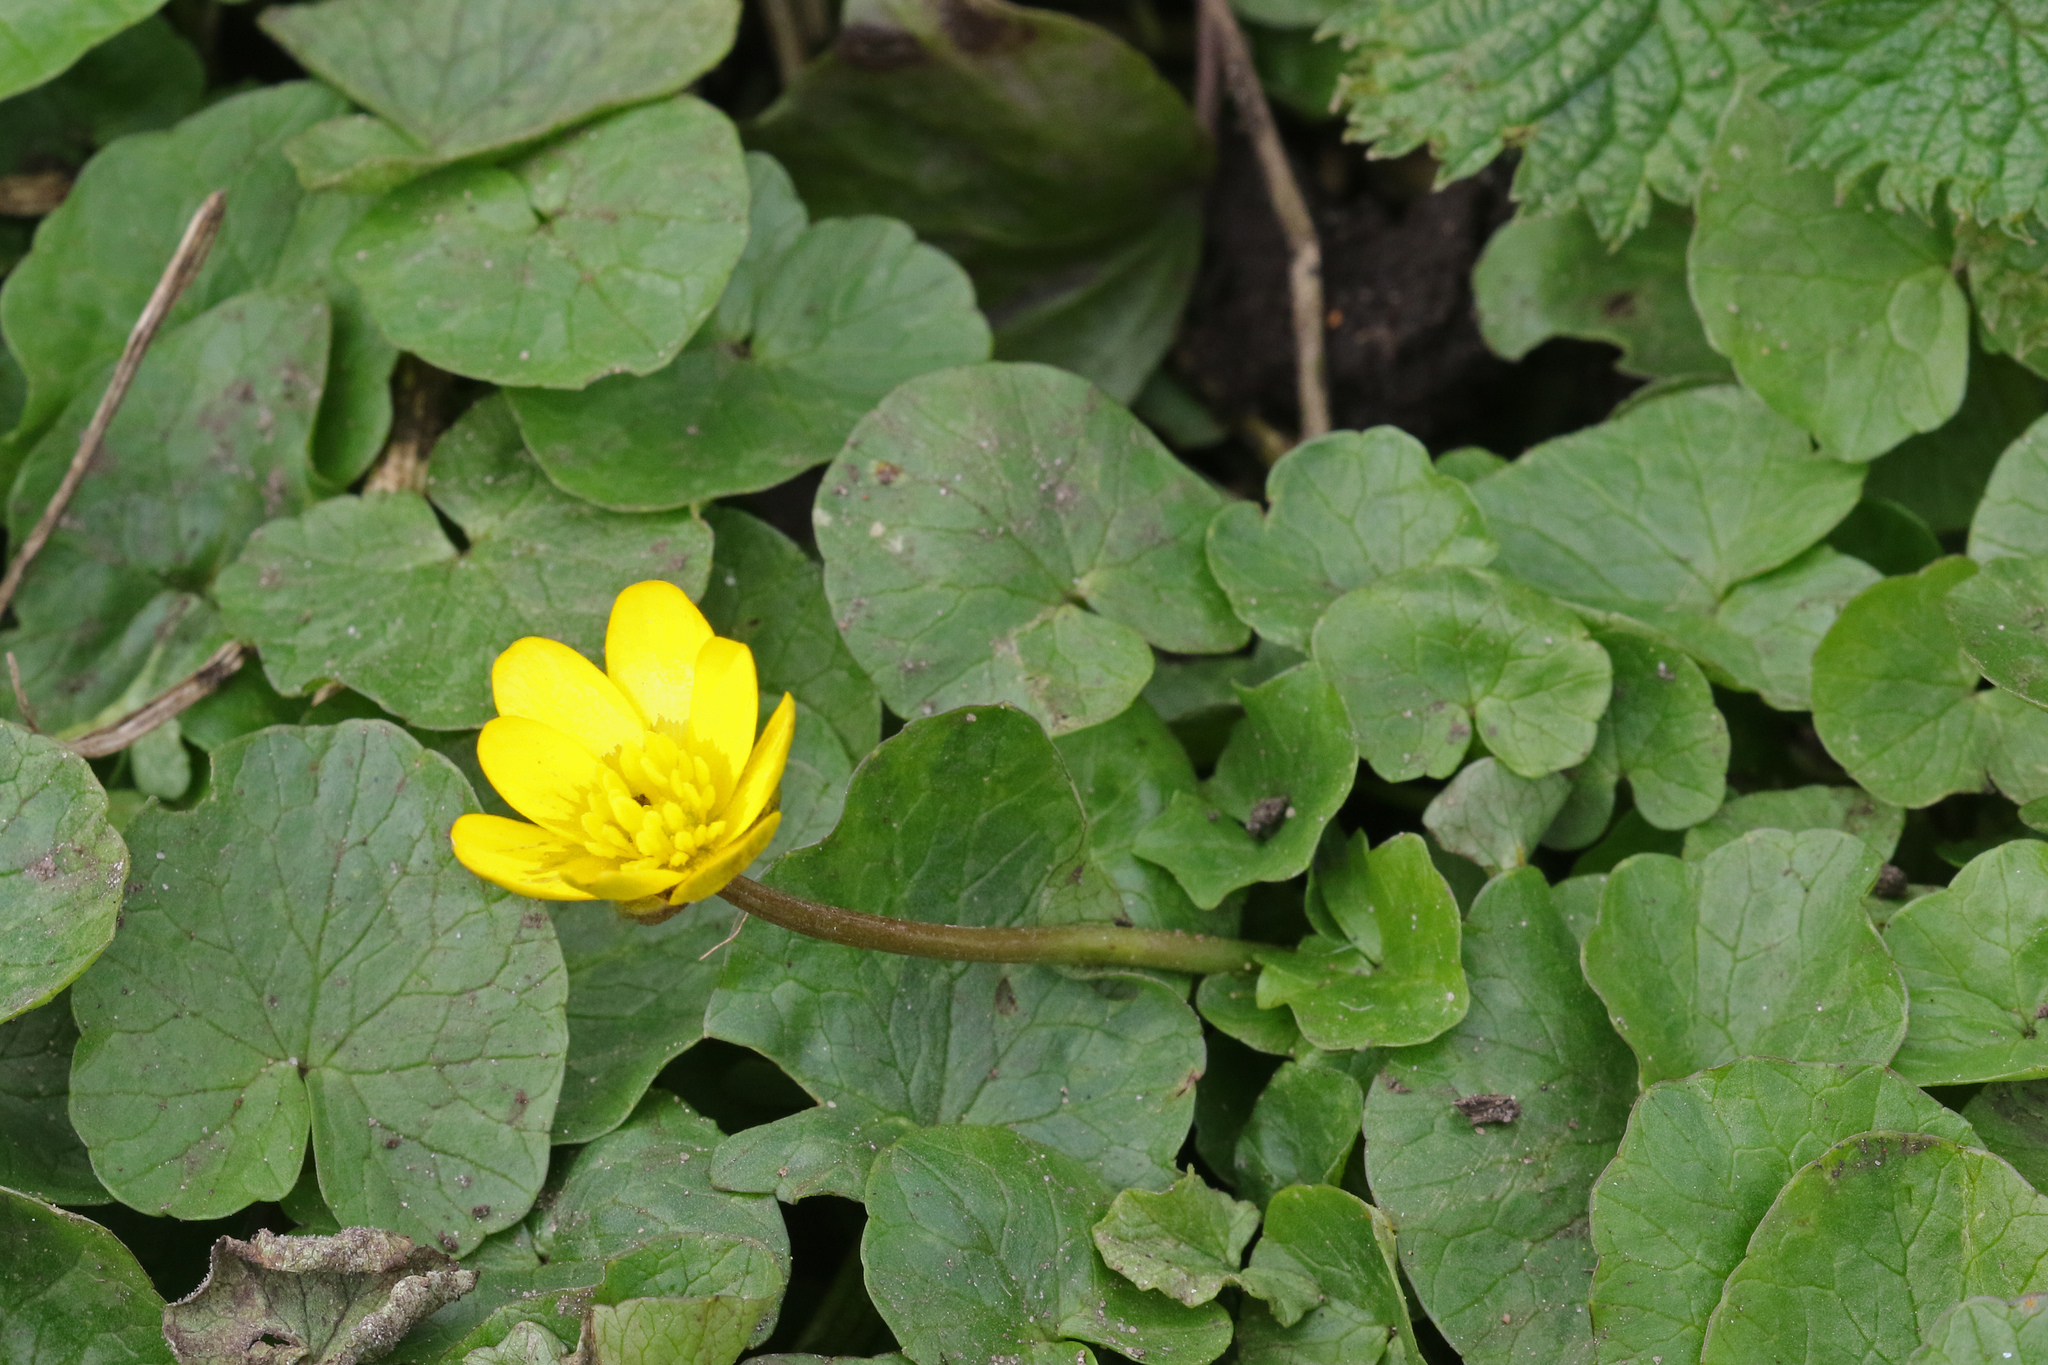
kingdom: Plantae
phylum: Tracheophyta
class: Magnoliopsida
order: Ranunculales
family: Ranunculaceae
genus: Ficaria
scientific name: Ficaria verna
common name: Lesser celandine
